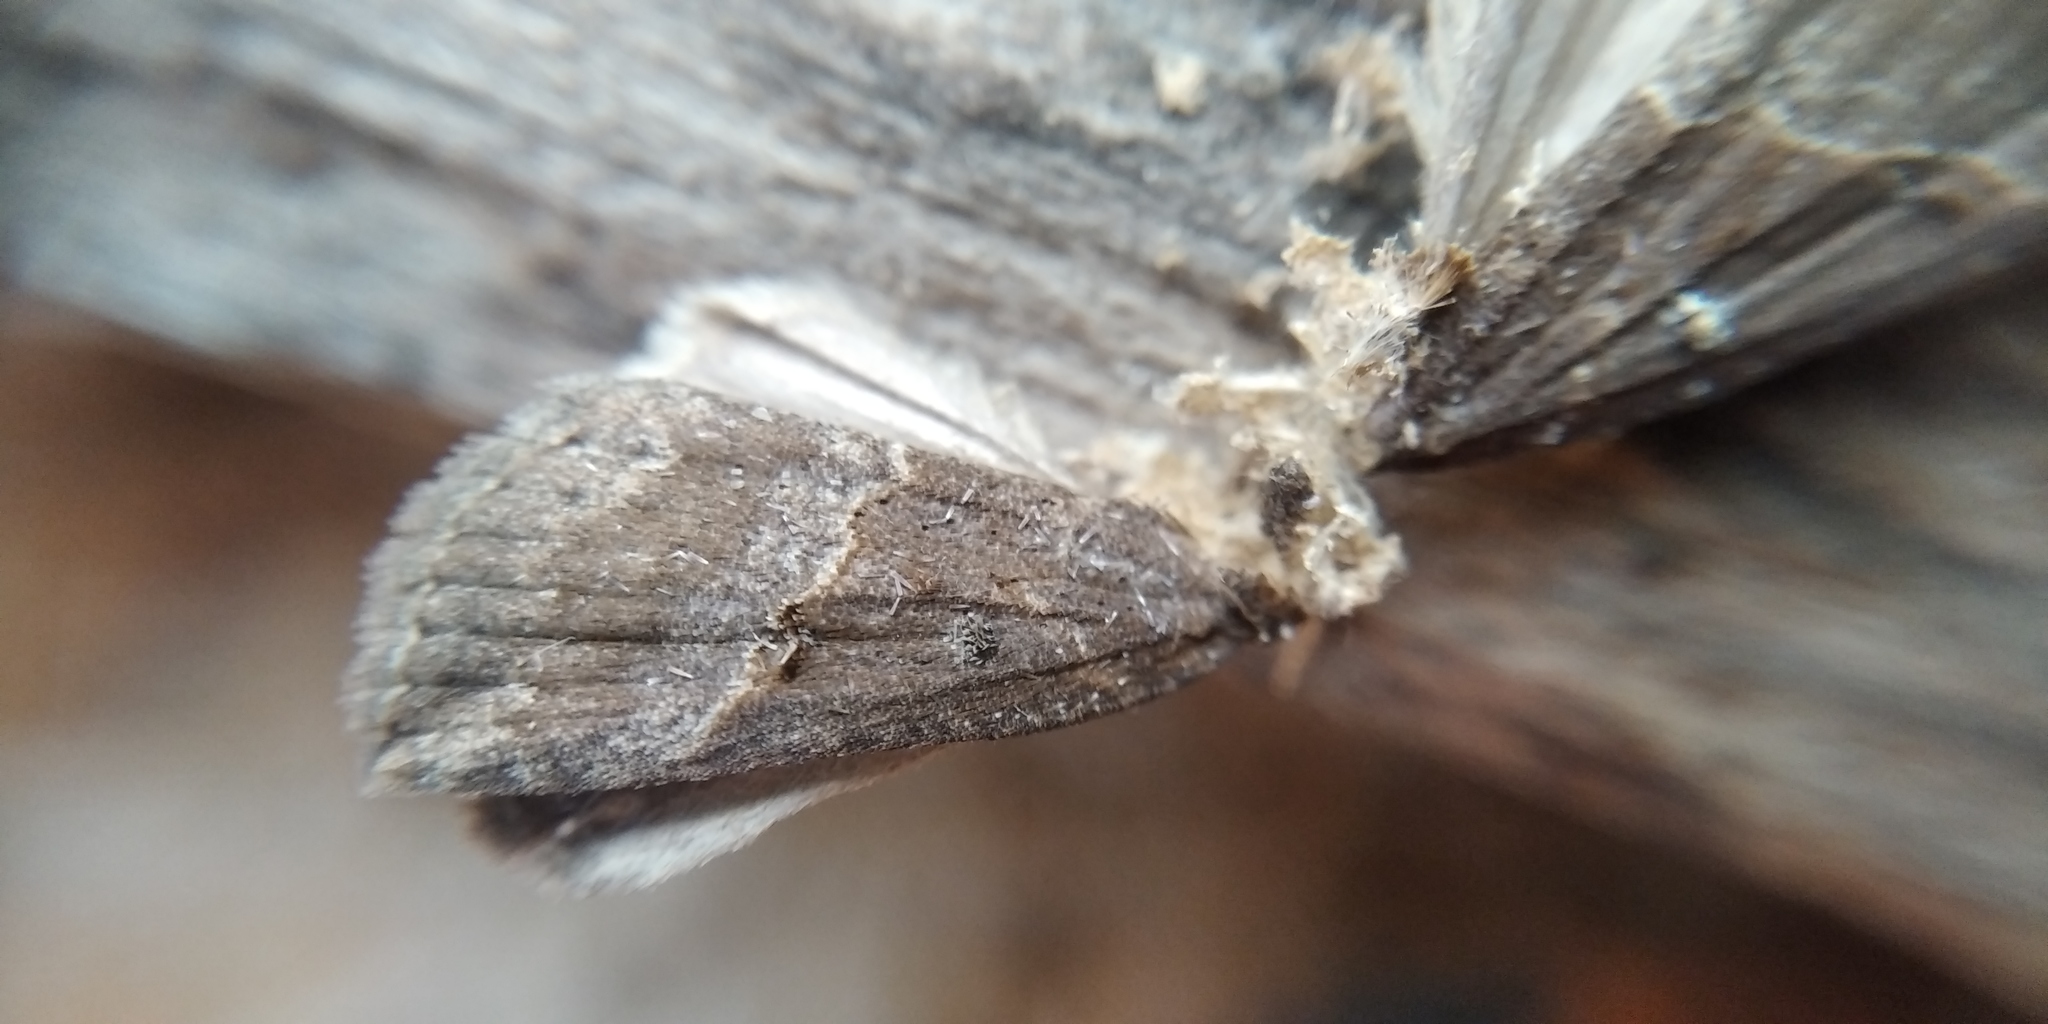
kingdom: Animalia
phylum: Arthropoda
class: Insecta
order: Lepidoptera
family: Erebidae
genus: Hypena
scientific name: Hypena rostralis
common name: Buttoned snout
